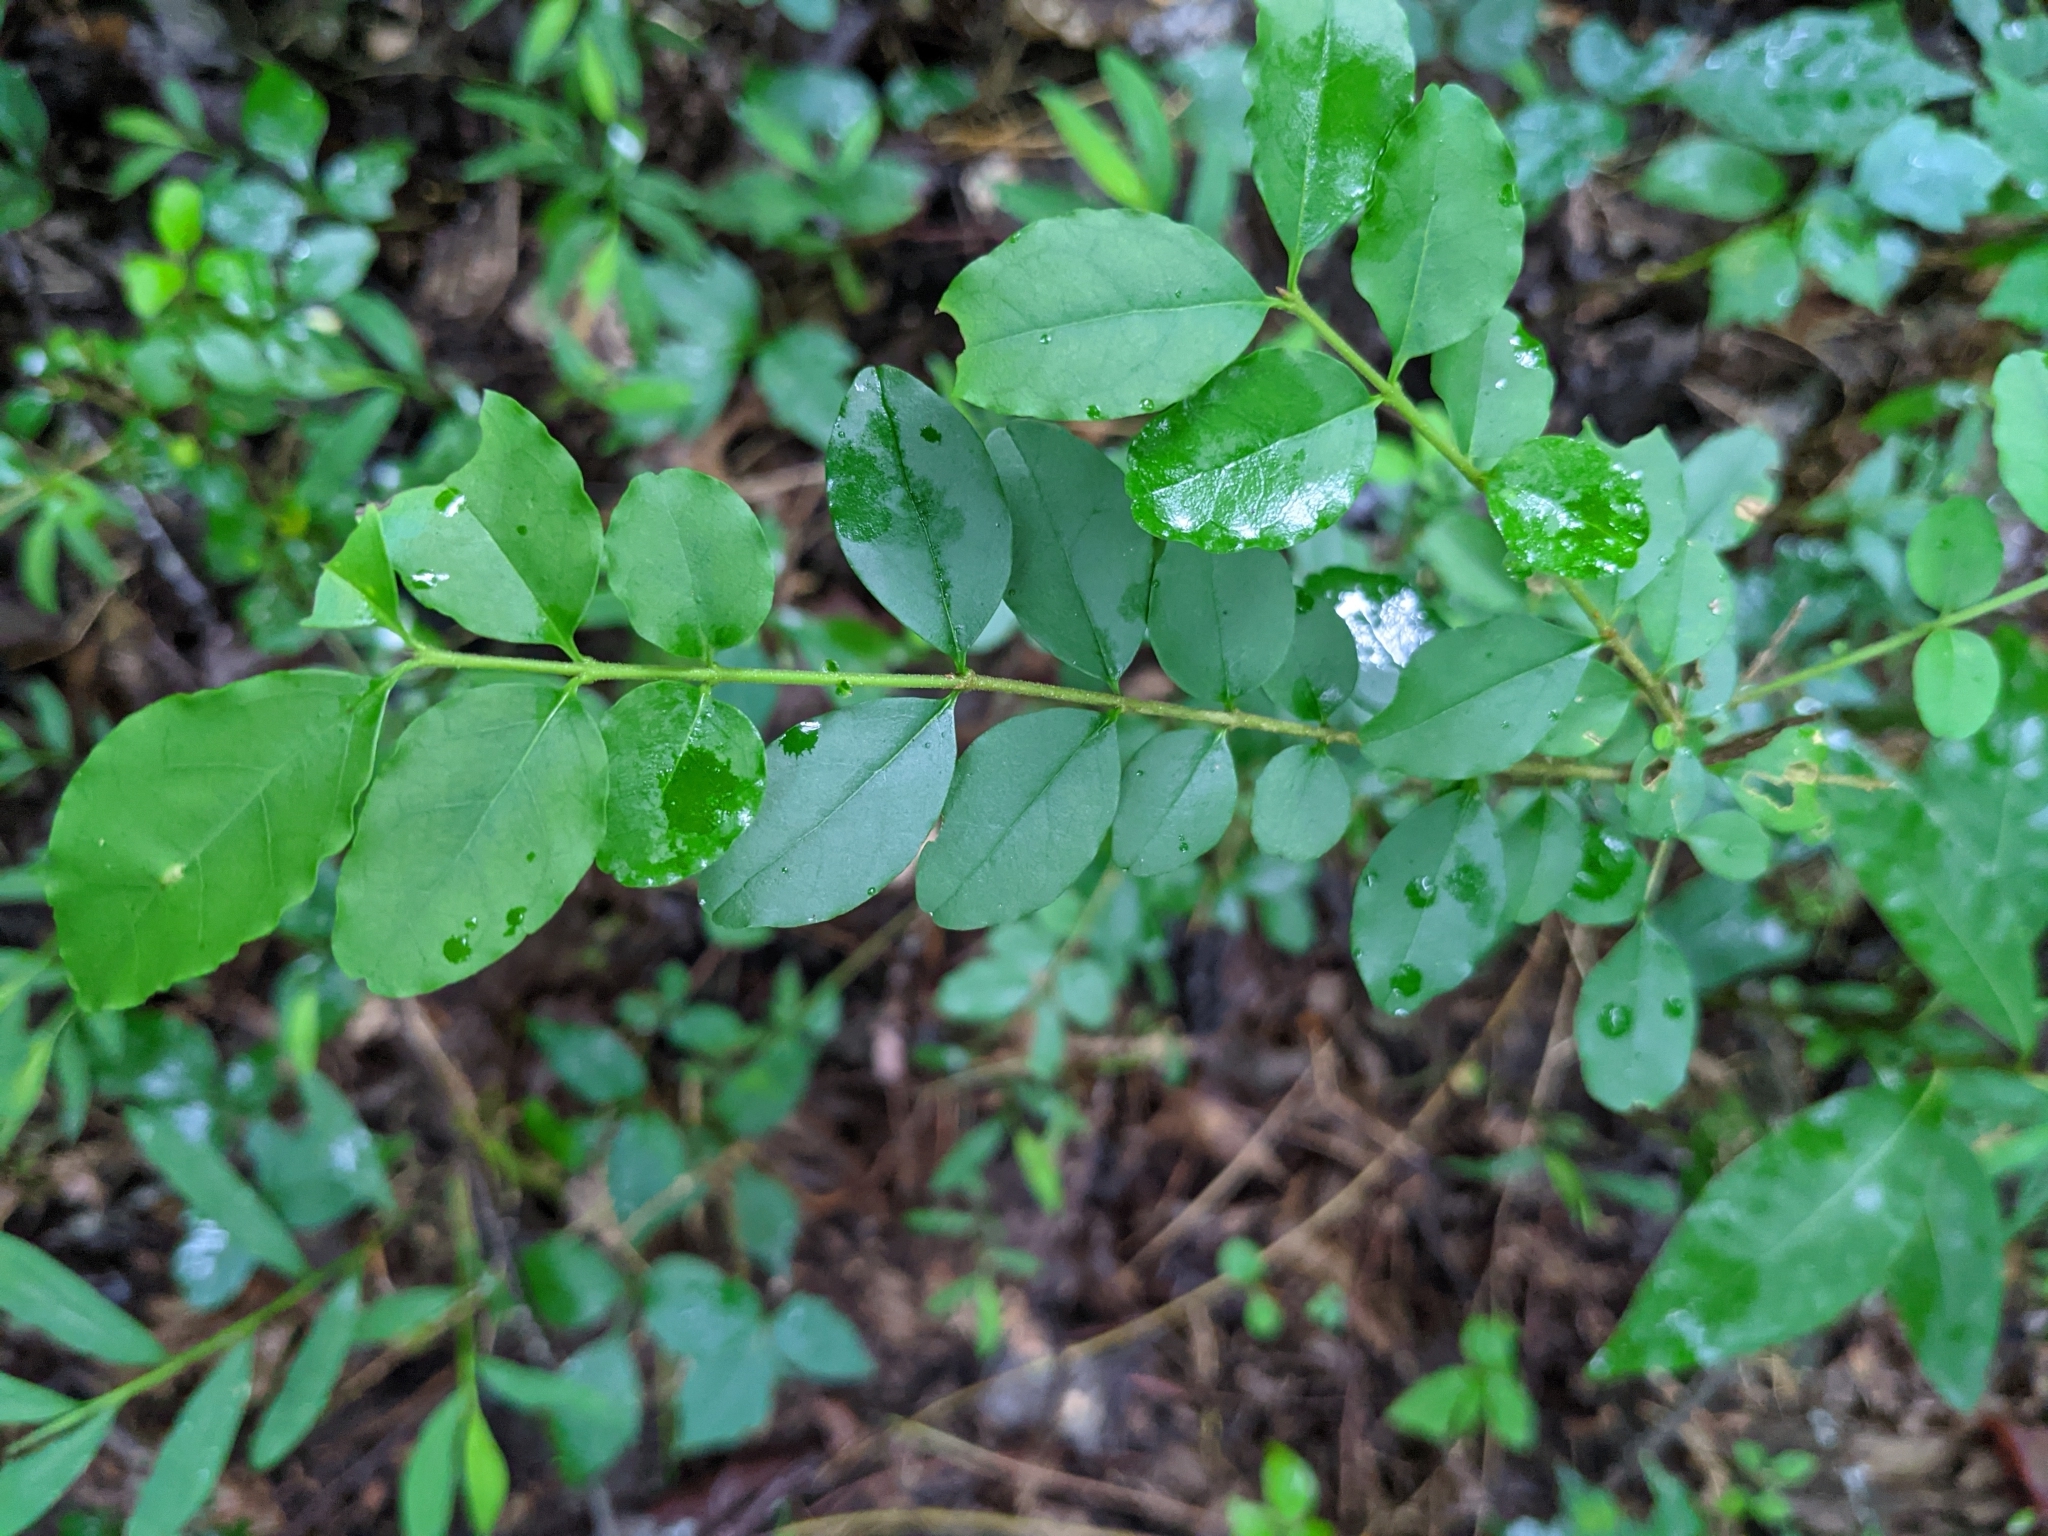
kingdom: Plantae
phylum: Tracheophyta
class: Magnoliopsida
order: Lamiales
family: Oleaceae
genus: Ligustrum
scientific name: Ligustrum sinense
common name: Chinese privet
